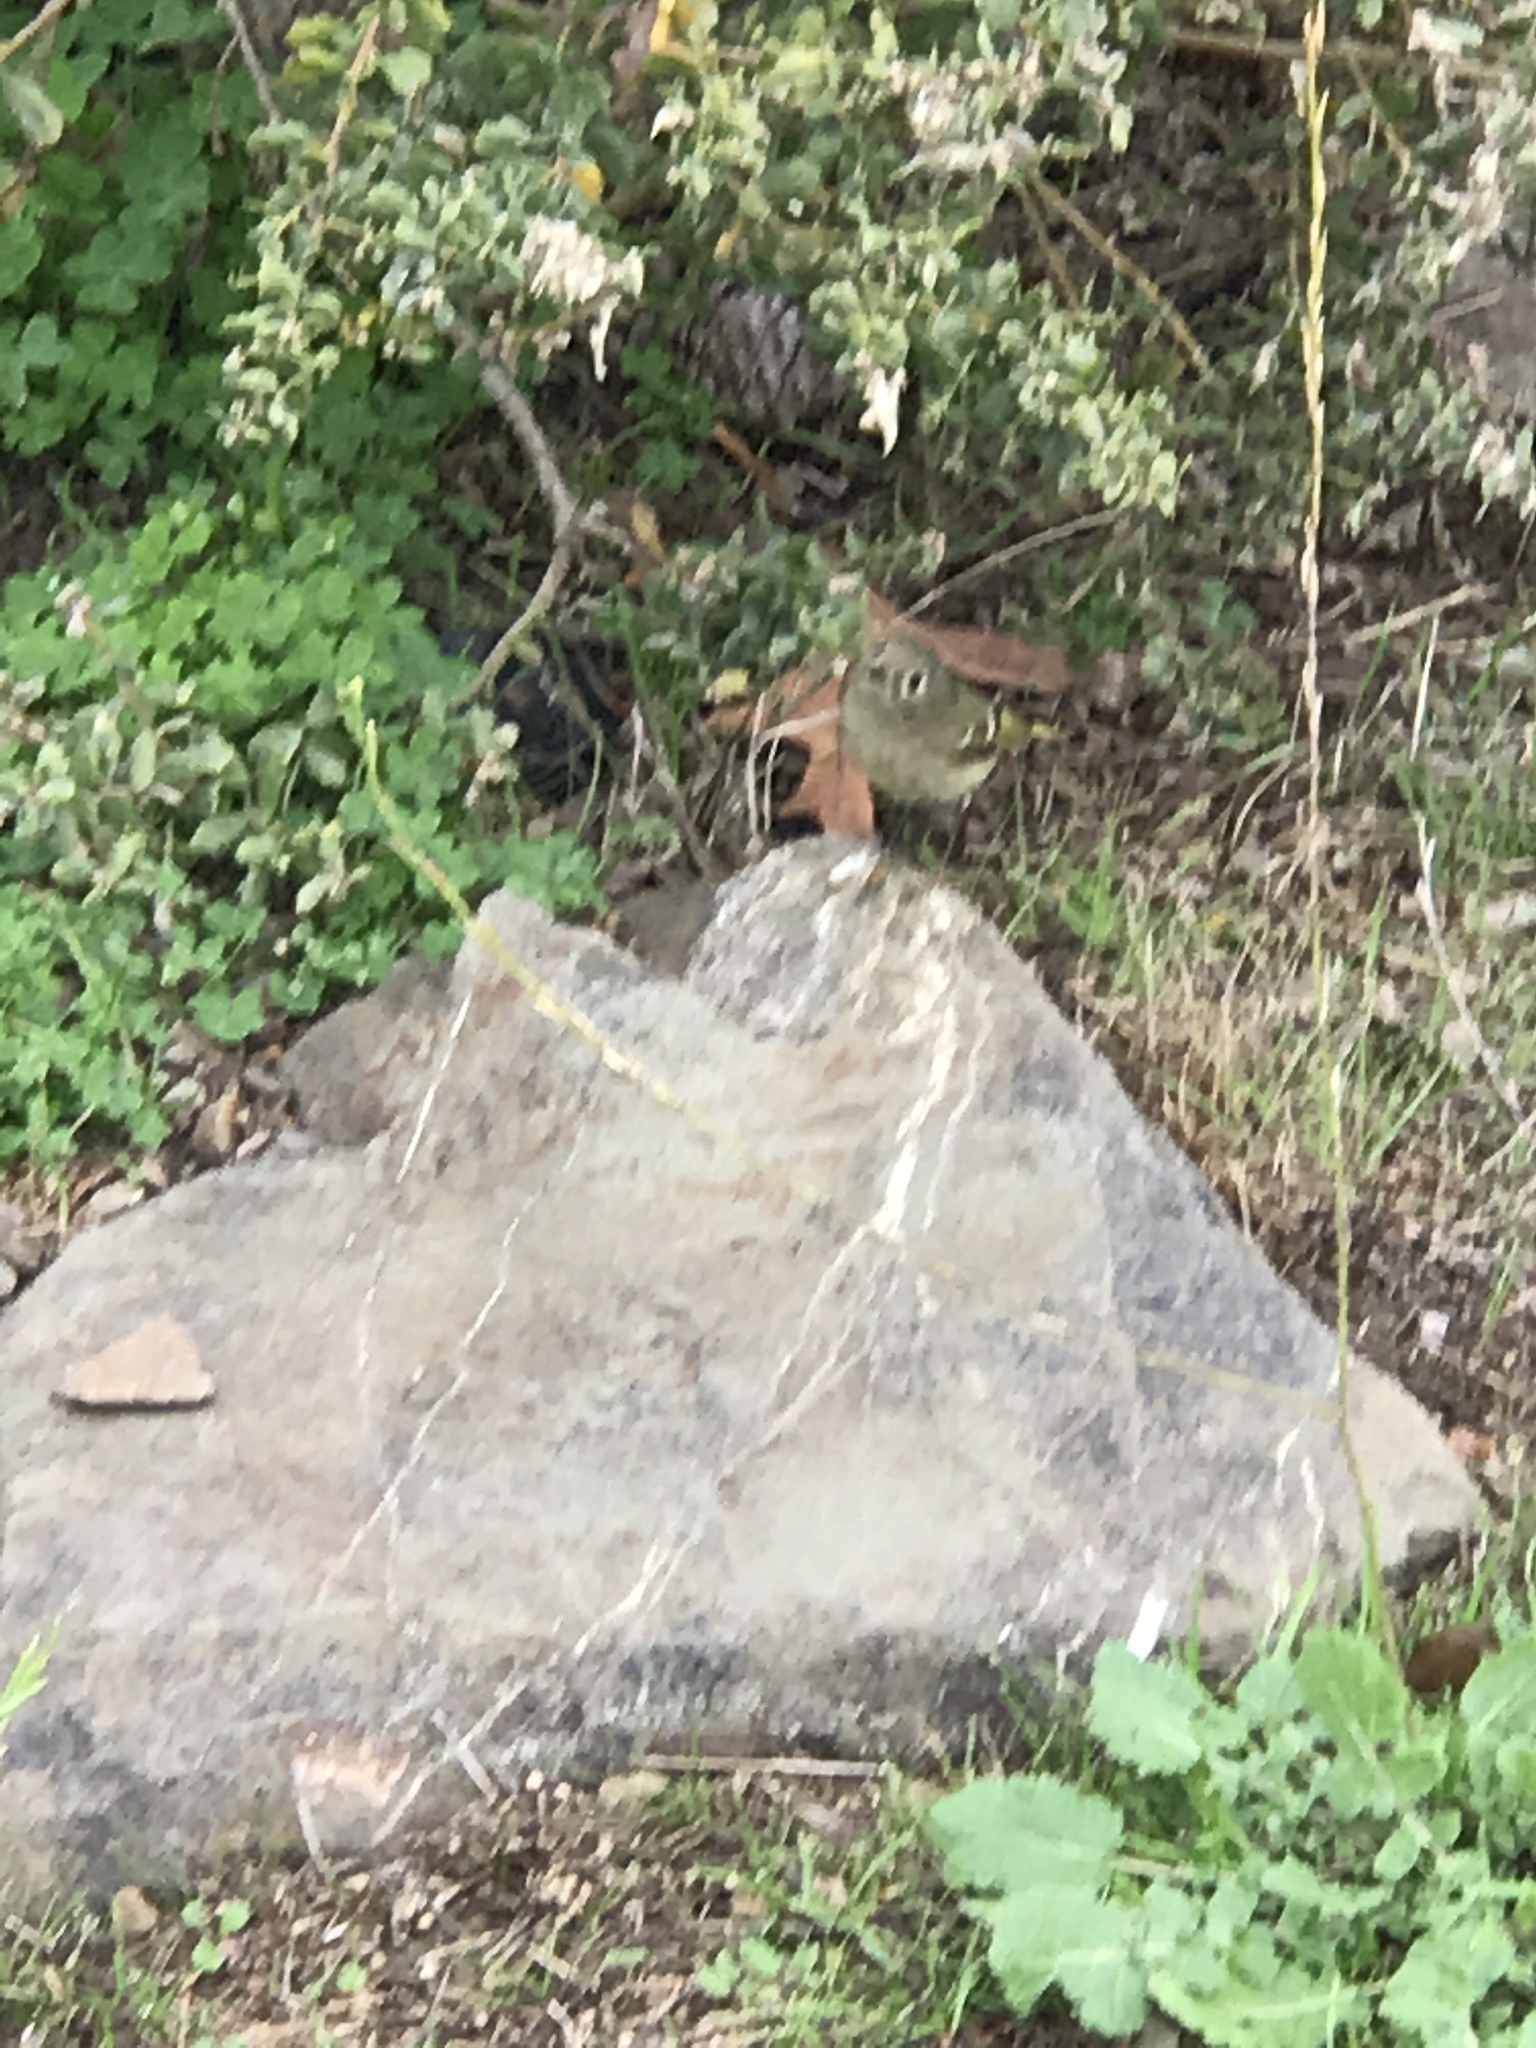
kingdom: Animalia
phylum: Chordata
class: Aves
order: Passeriformes
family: Regulidae
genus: Regulus
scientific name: Regulus calendula
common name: Ruby-crowned kinglet
